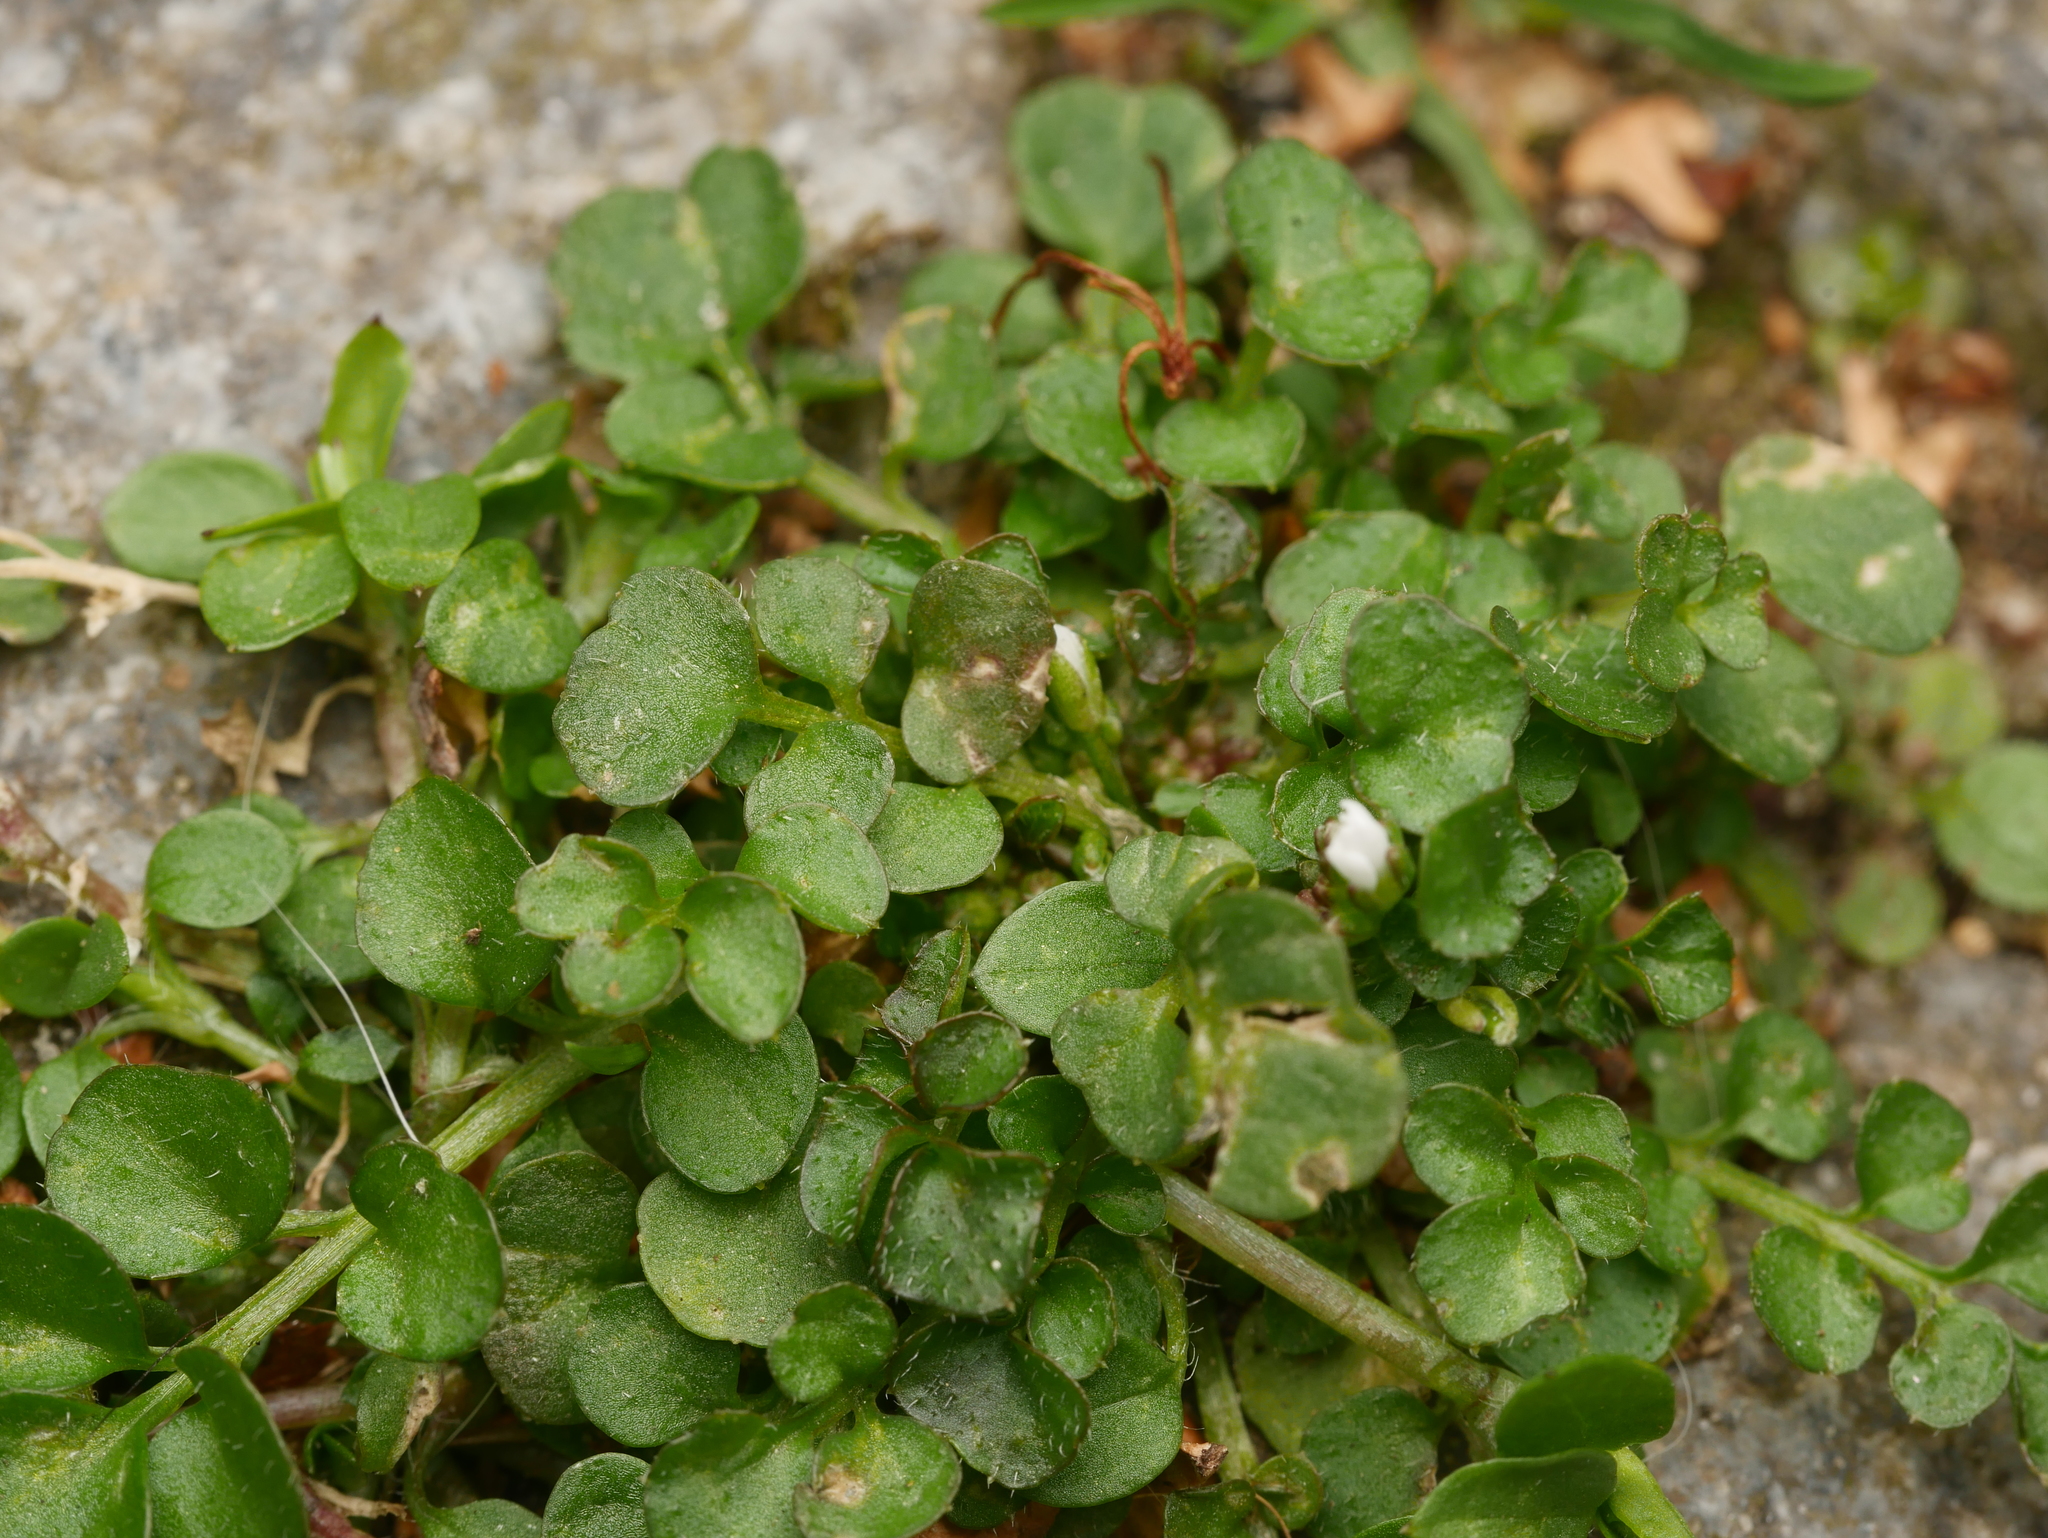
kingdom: Plantae
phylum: Tracheophyta
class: Magnoliopsida
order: Brassicales
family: Brassicaceae
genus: Cardamine
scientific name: Cardamine hirsuta
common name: Hairy bittercress
